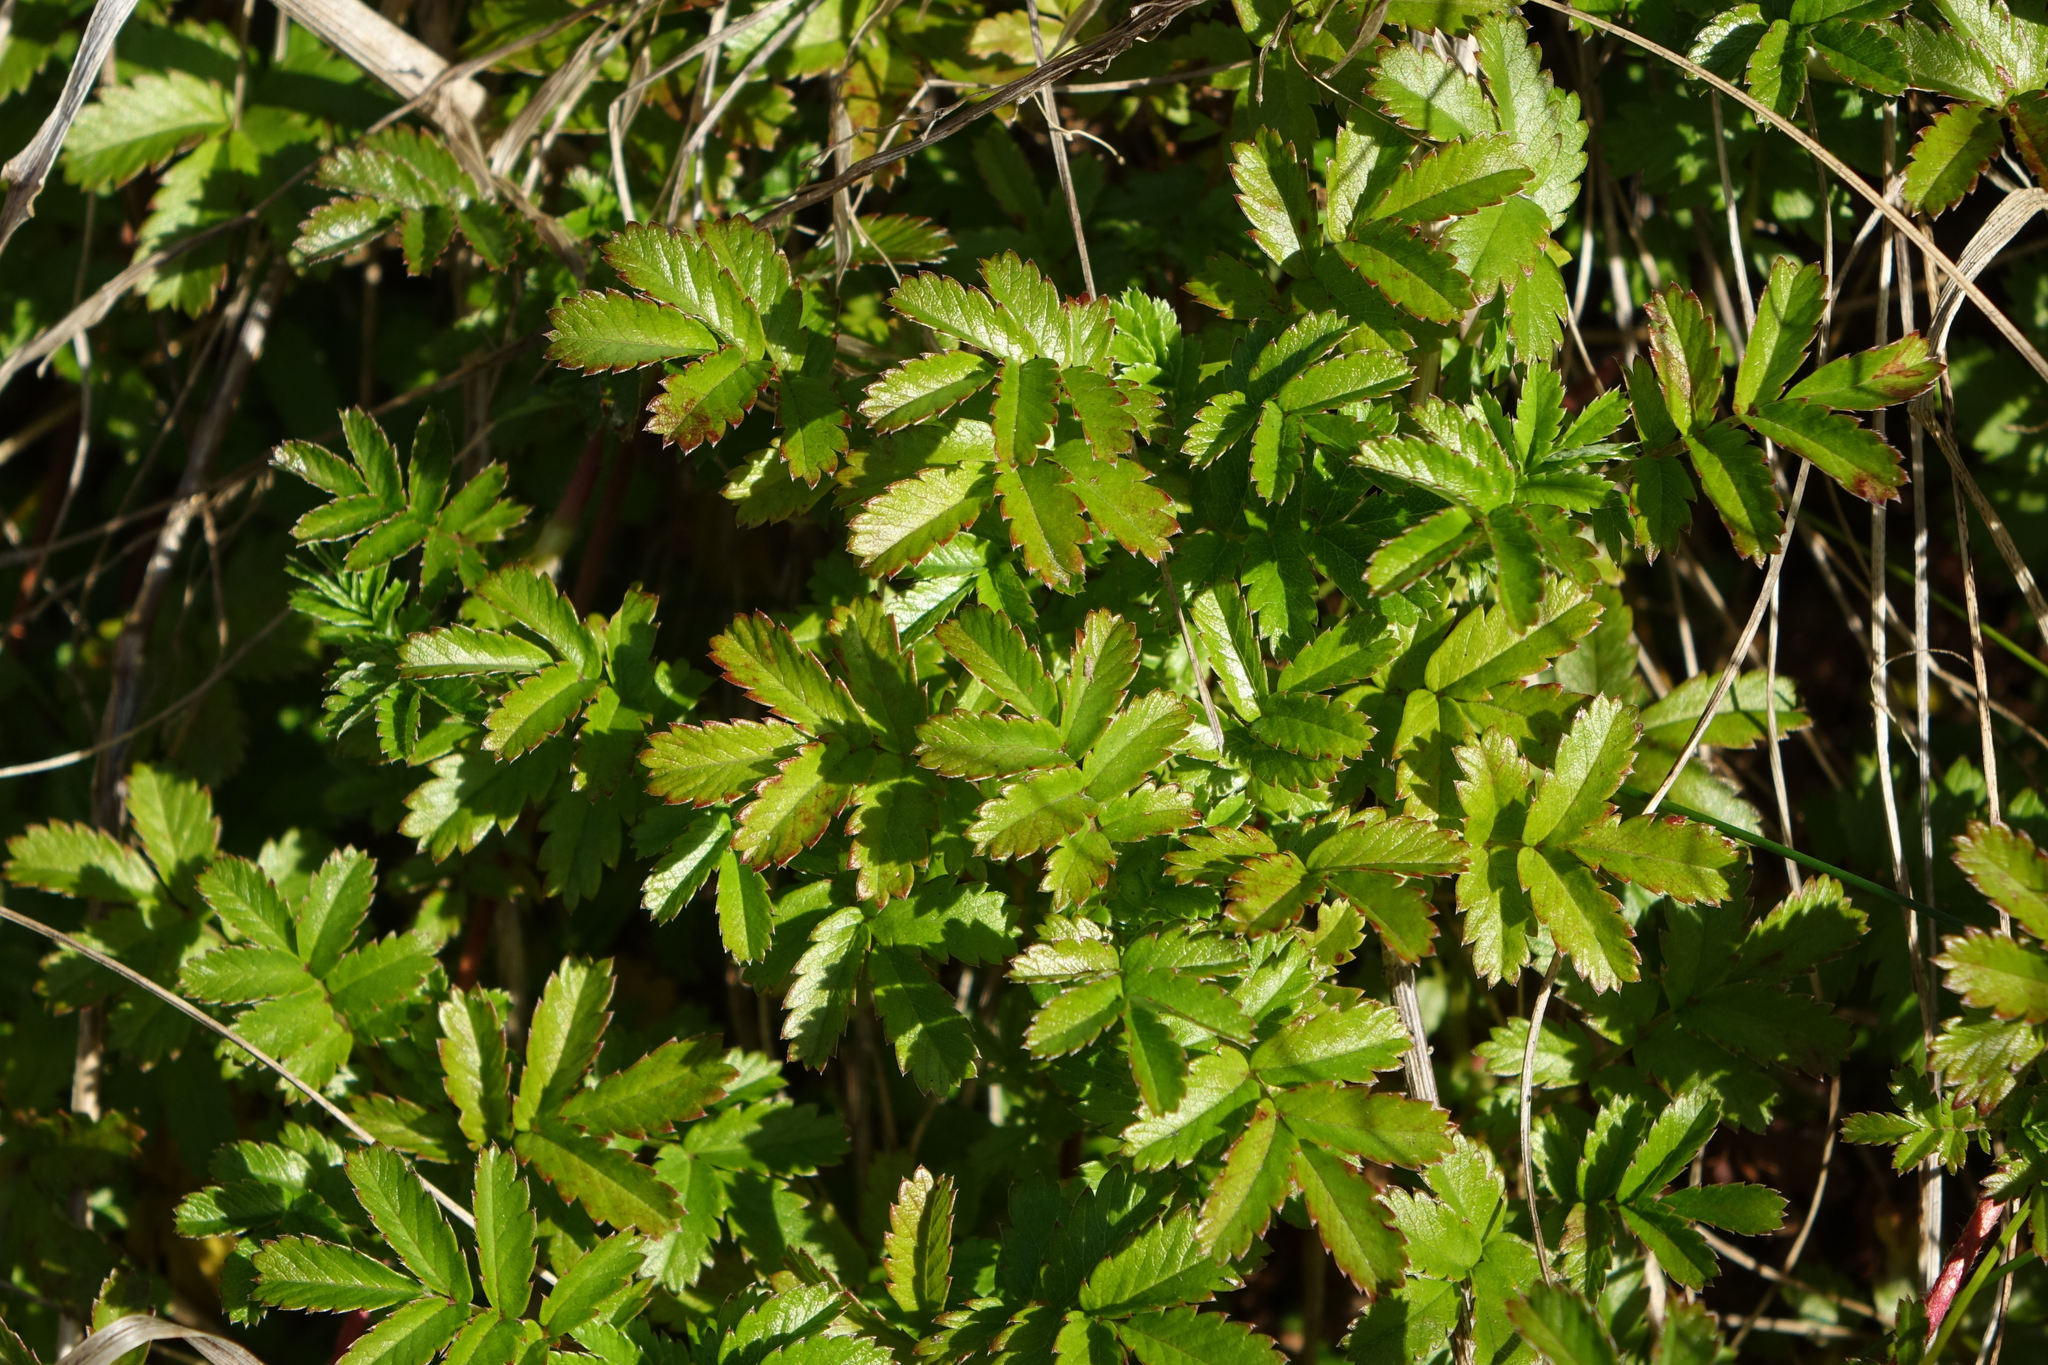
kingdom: Plantae
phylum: Tracheophyta
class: Magnoliopsida
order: Rosales
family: Rosaceae
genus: Acaena
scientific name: Acaena novae-zelandiae
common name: Pirri-pirri-bur
